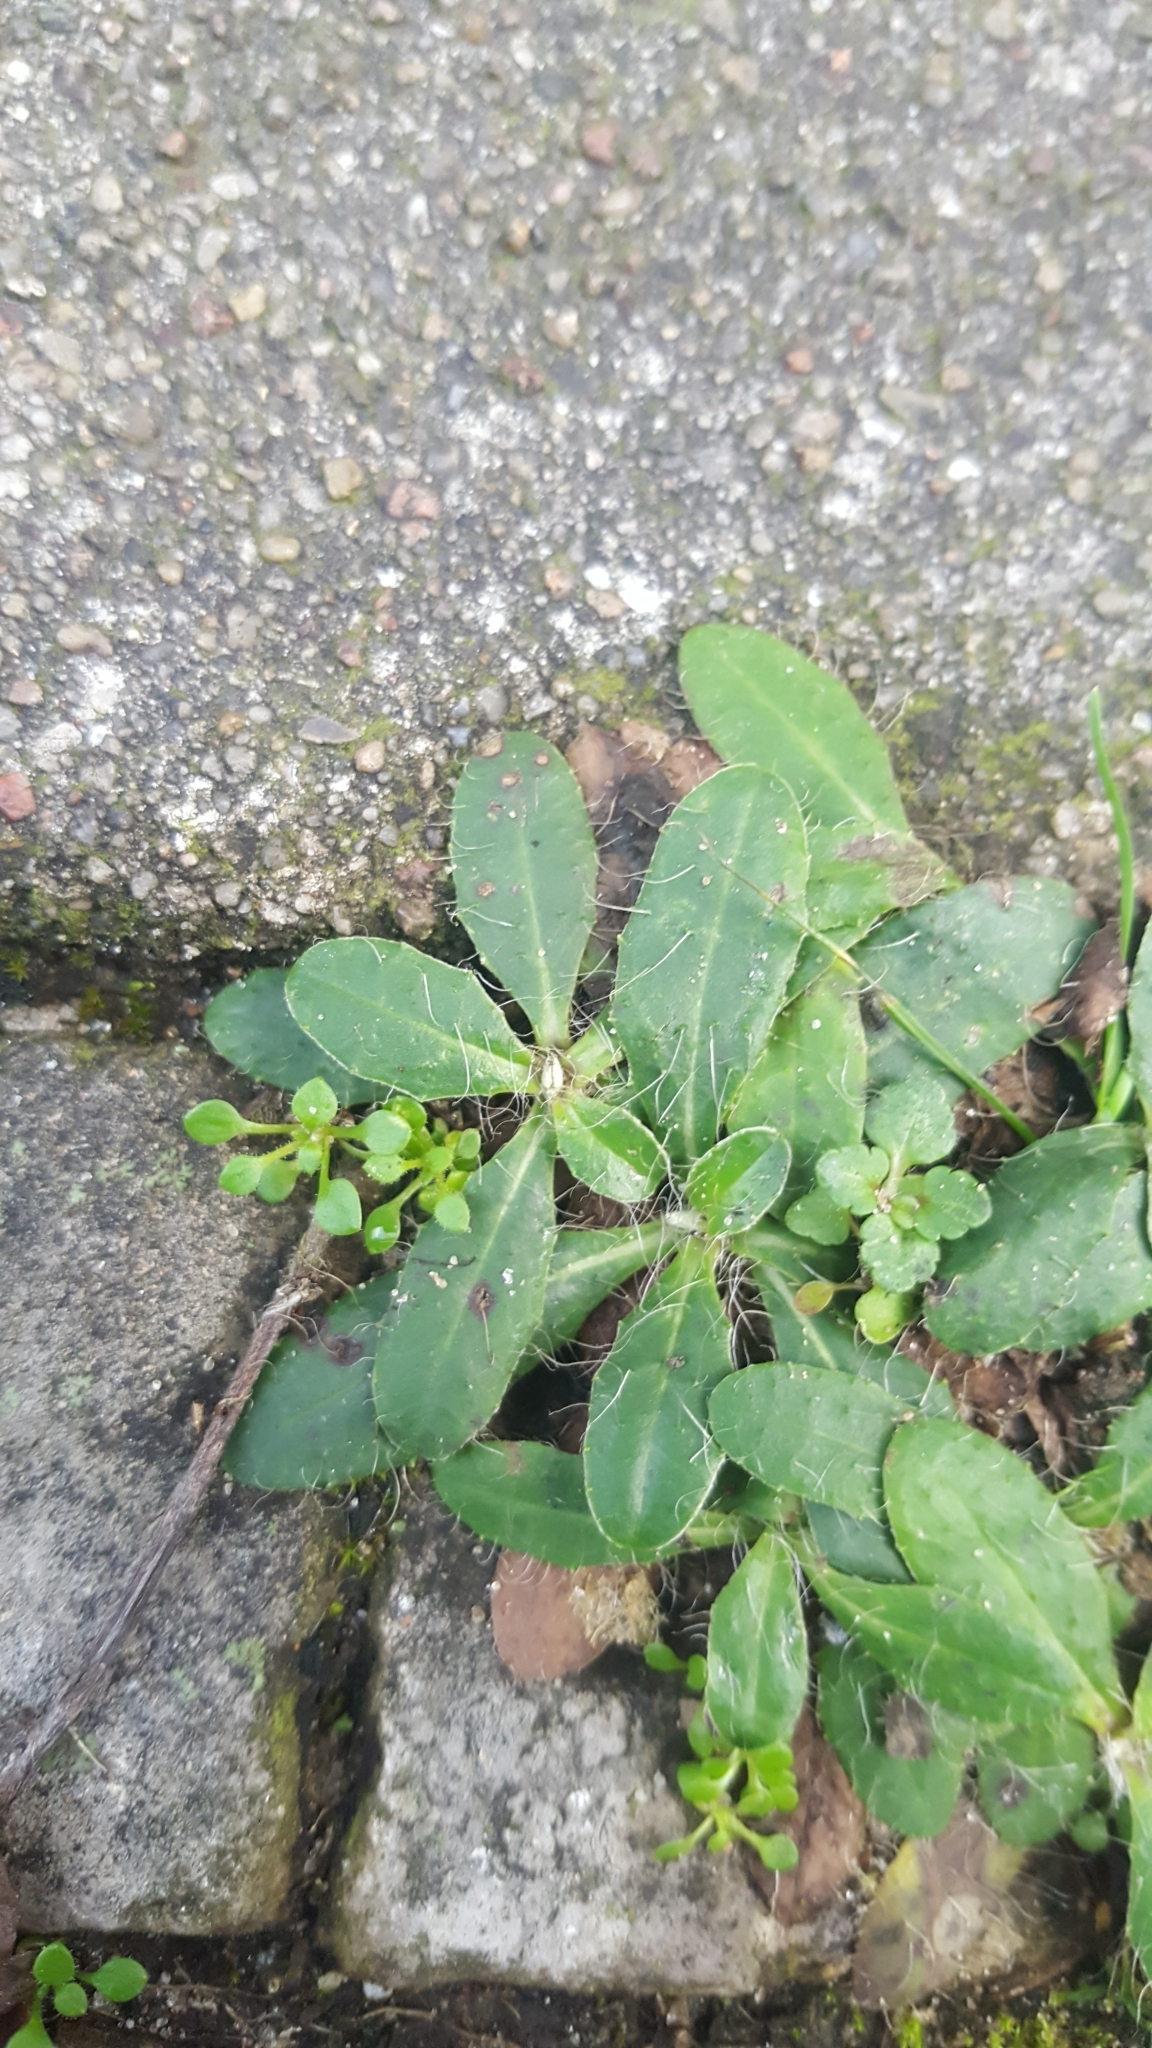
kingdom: Plantae
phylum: Tracheophyta
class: Magnoliopsida
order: Asterales
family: Asteraceae
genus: Pilosella
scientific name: Pilosella officinarum
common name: Mouse-ear hawkweed
